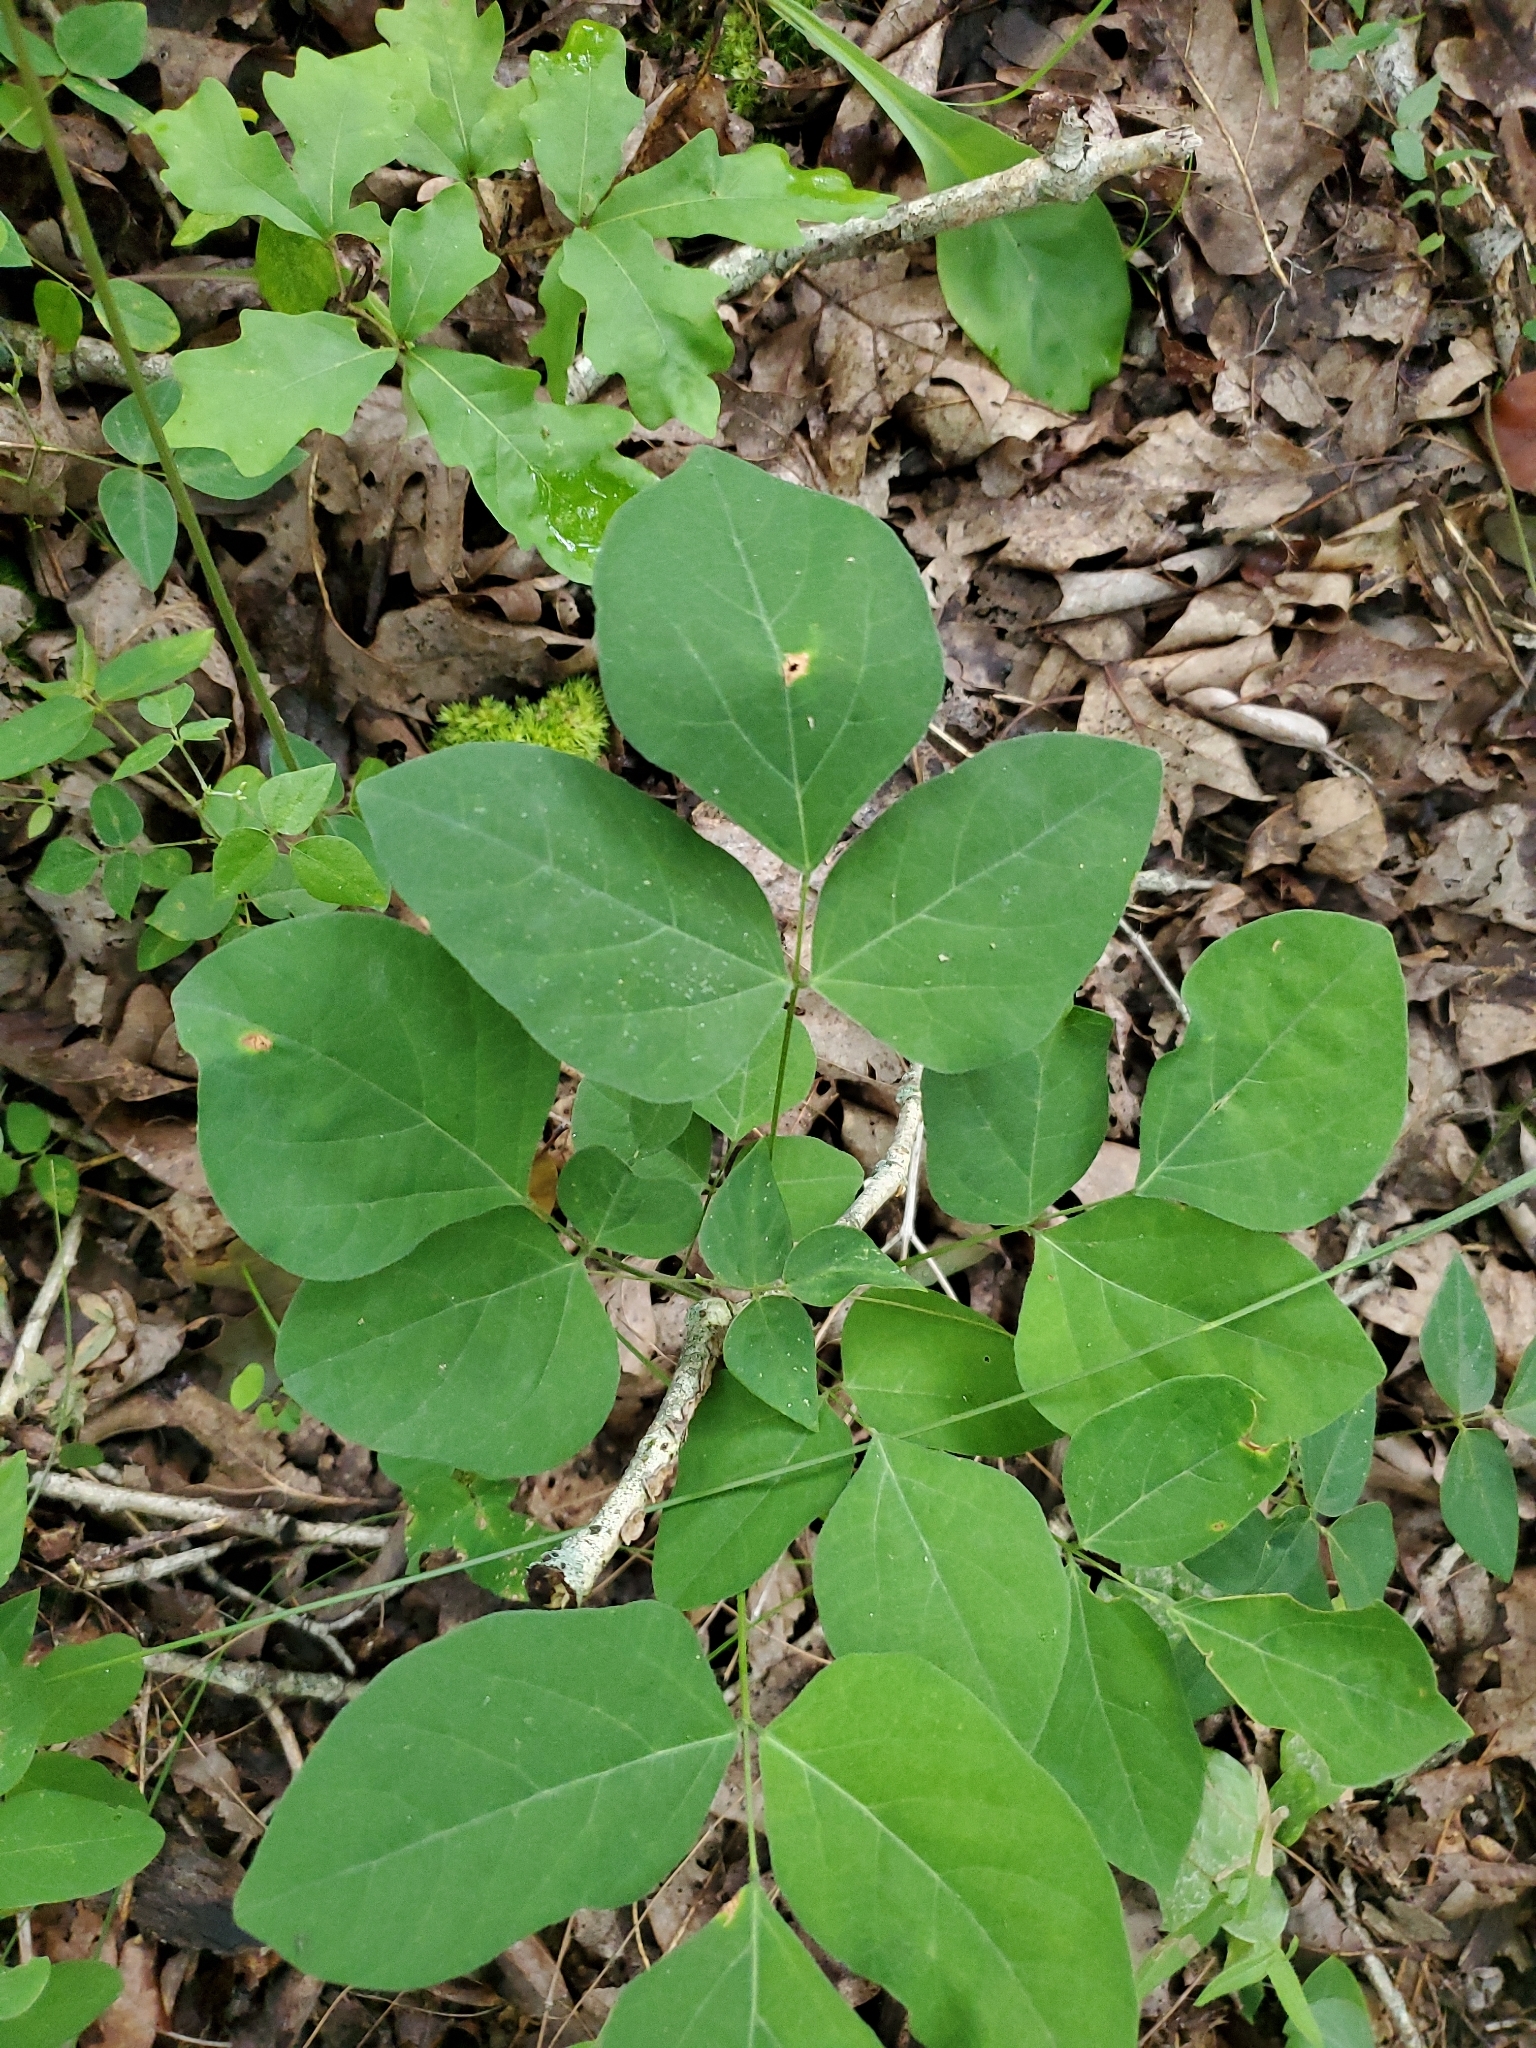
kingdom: Plantae
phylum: Tracheophyta
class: Magnoliopsida
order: Fabales
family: Fabaceae
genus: Hylodesmum
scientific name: Hylodesmum nudiflorum
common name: Bare-stemmed tick-trefoil
